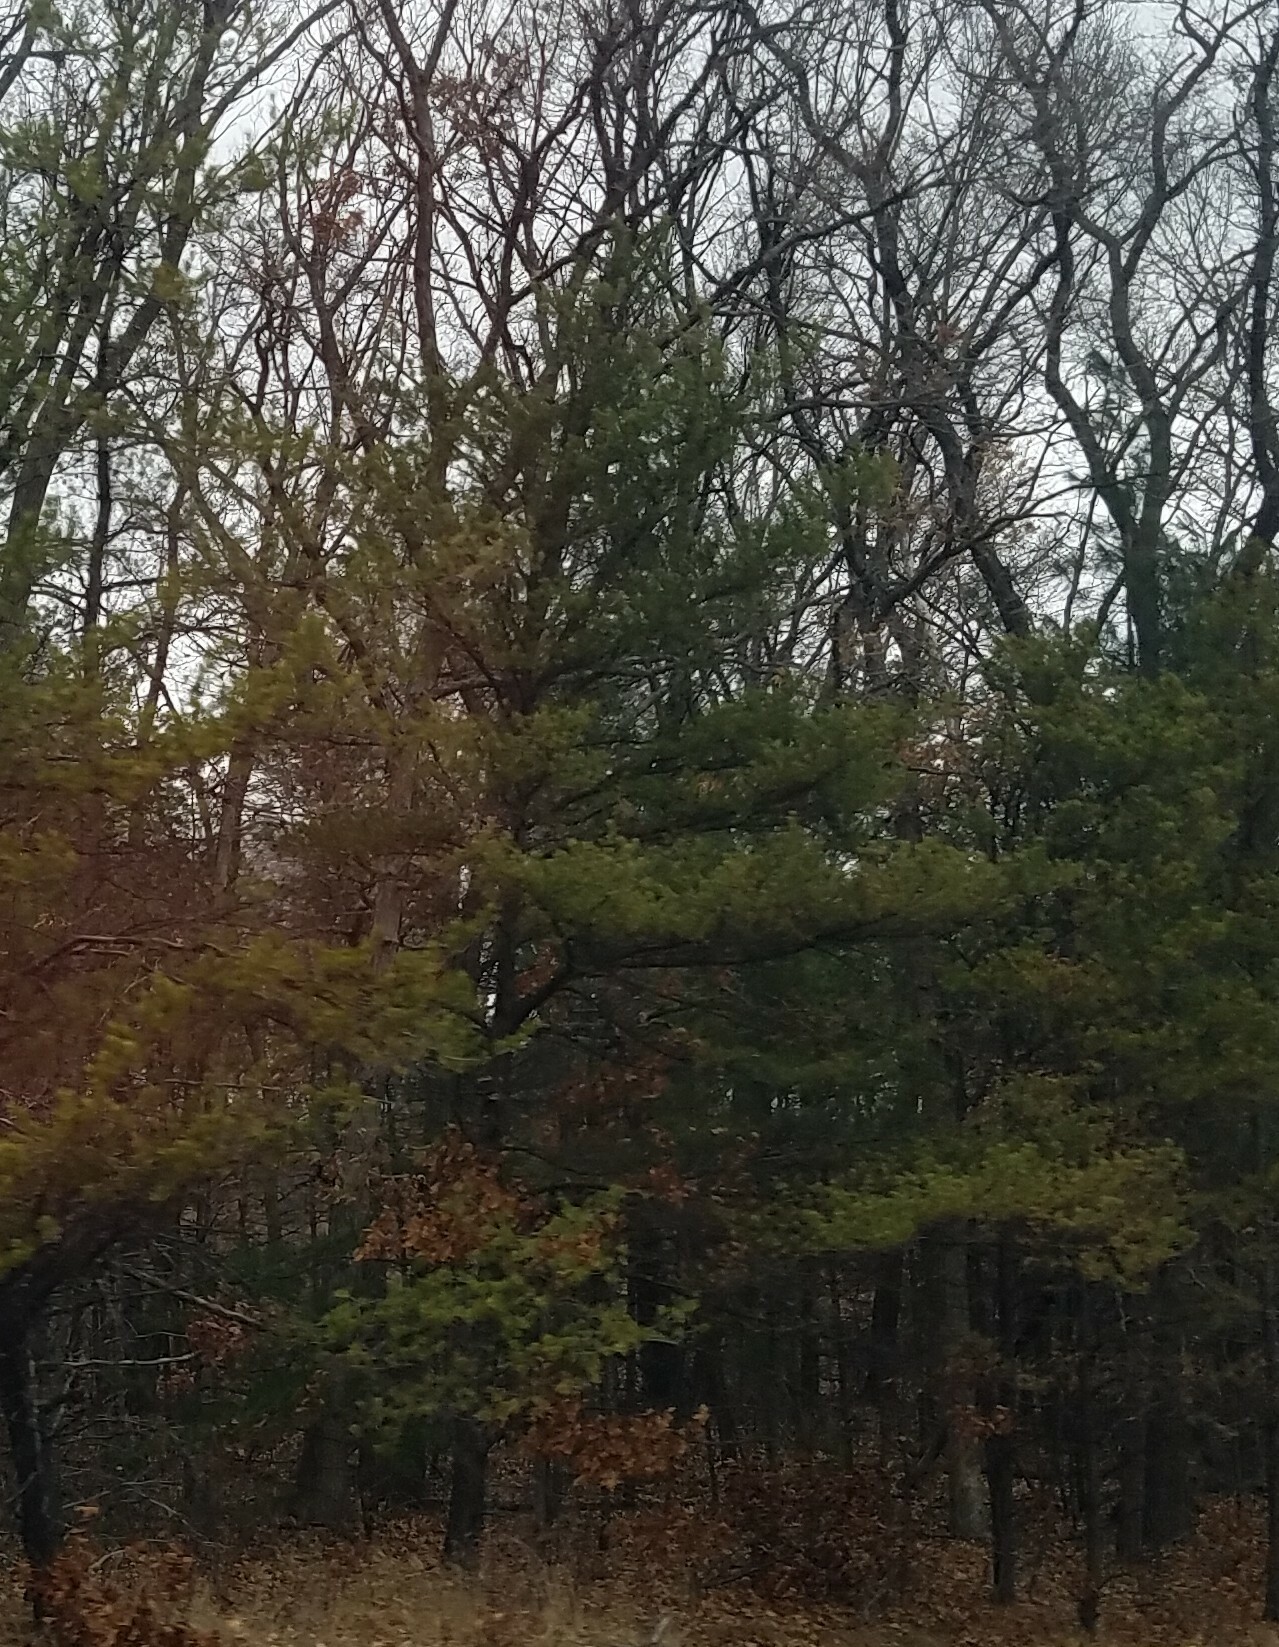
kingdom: Plantae
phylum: Tracheophyta
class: Pinopsida
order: Pinales
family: Pinaceae
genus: Pinus
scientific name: Pinus strobus
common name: Weymouth pine
